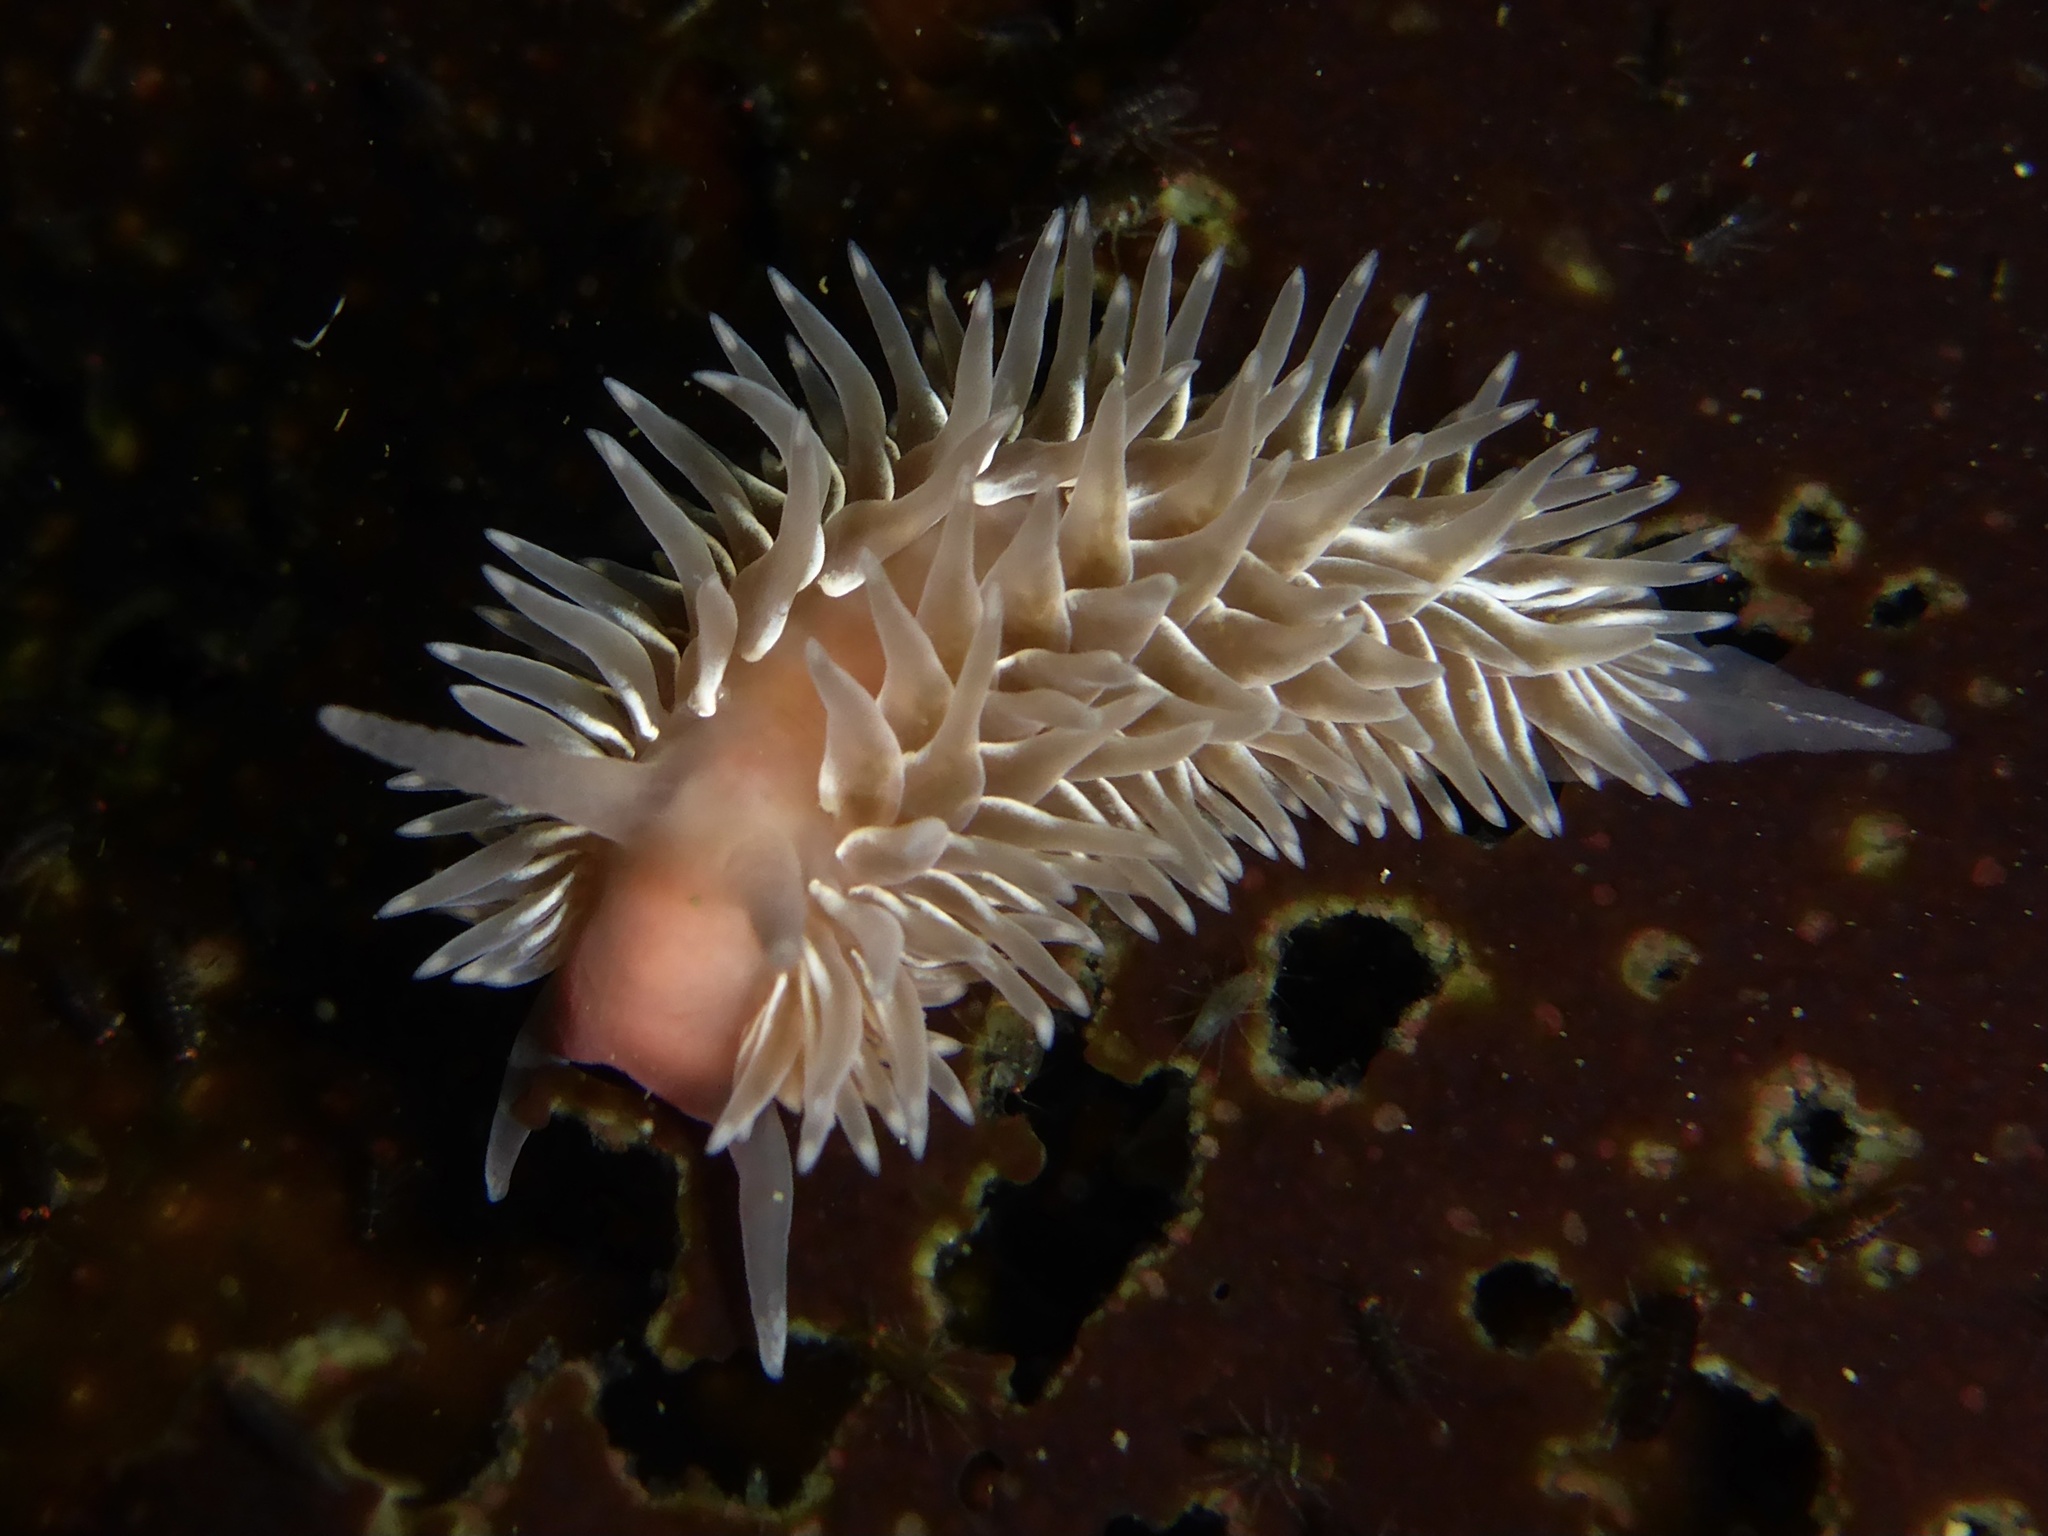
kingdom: Animalia
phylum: Mollusca
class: Gastropoda
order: Nudibranchia
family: Aeolidiidae
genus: Aeolidia
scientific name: Aeolidia loui
